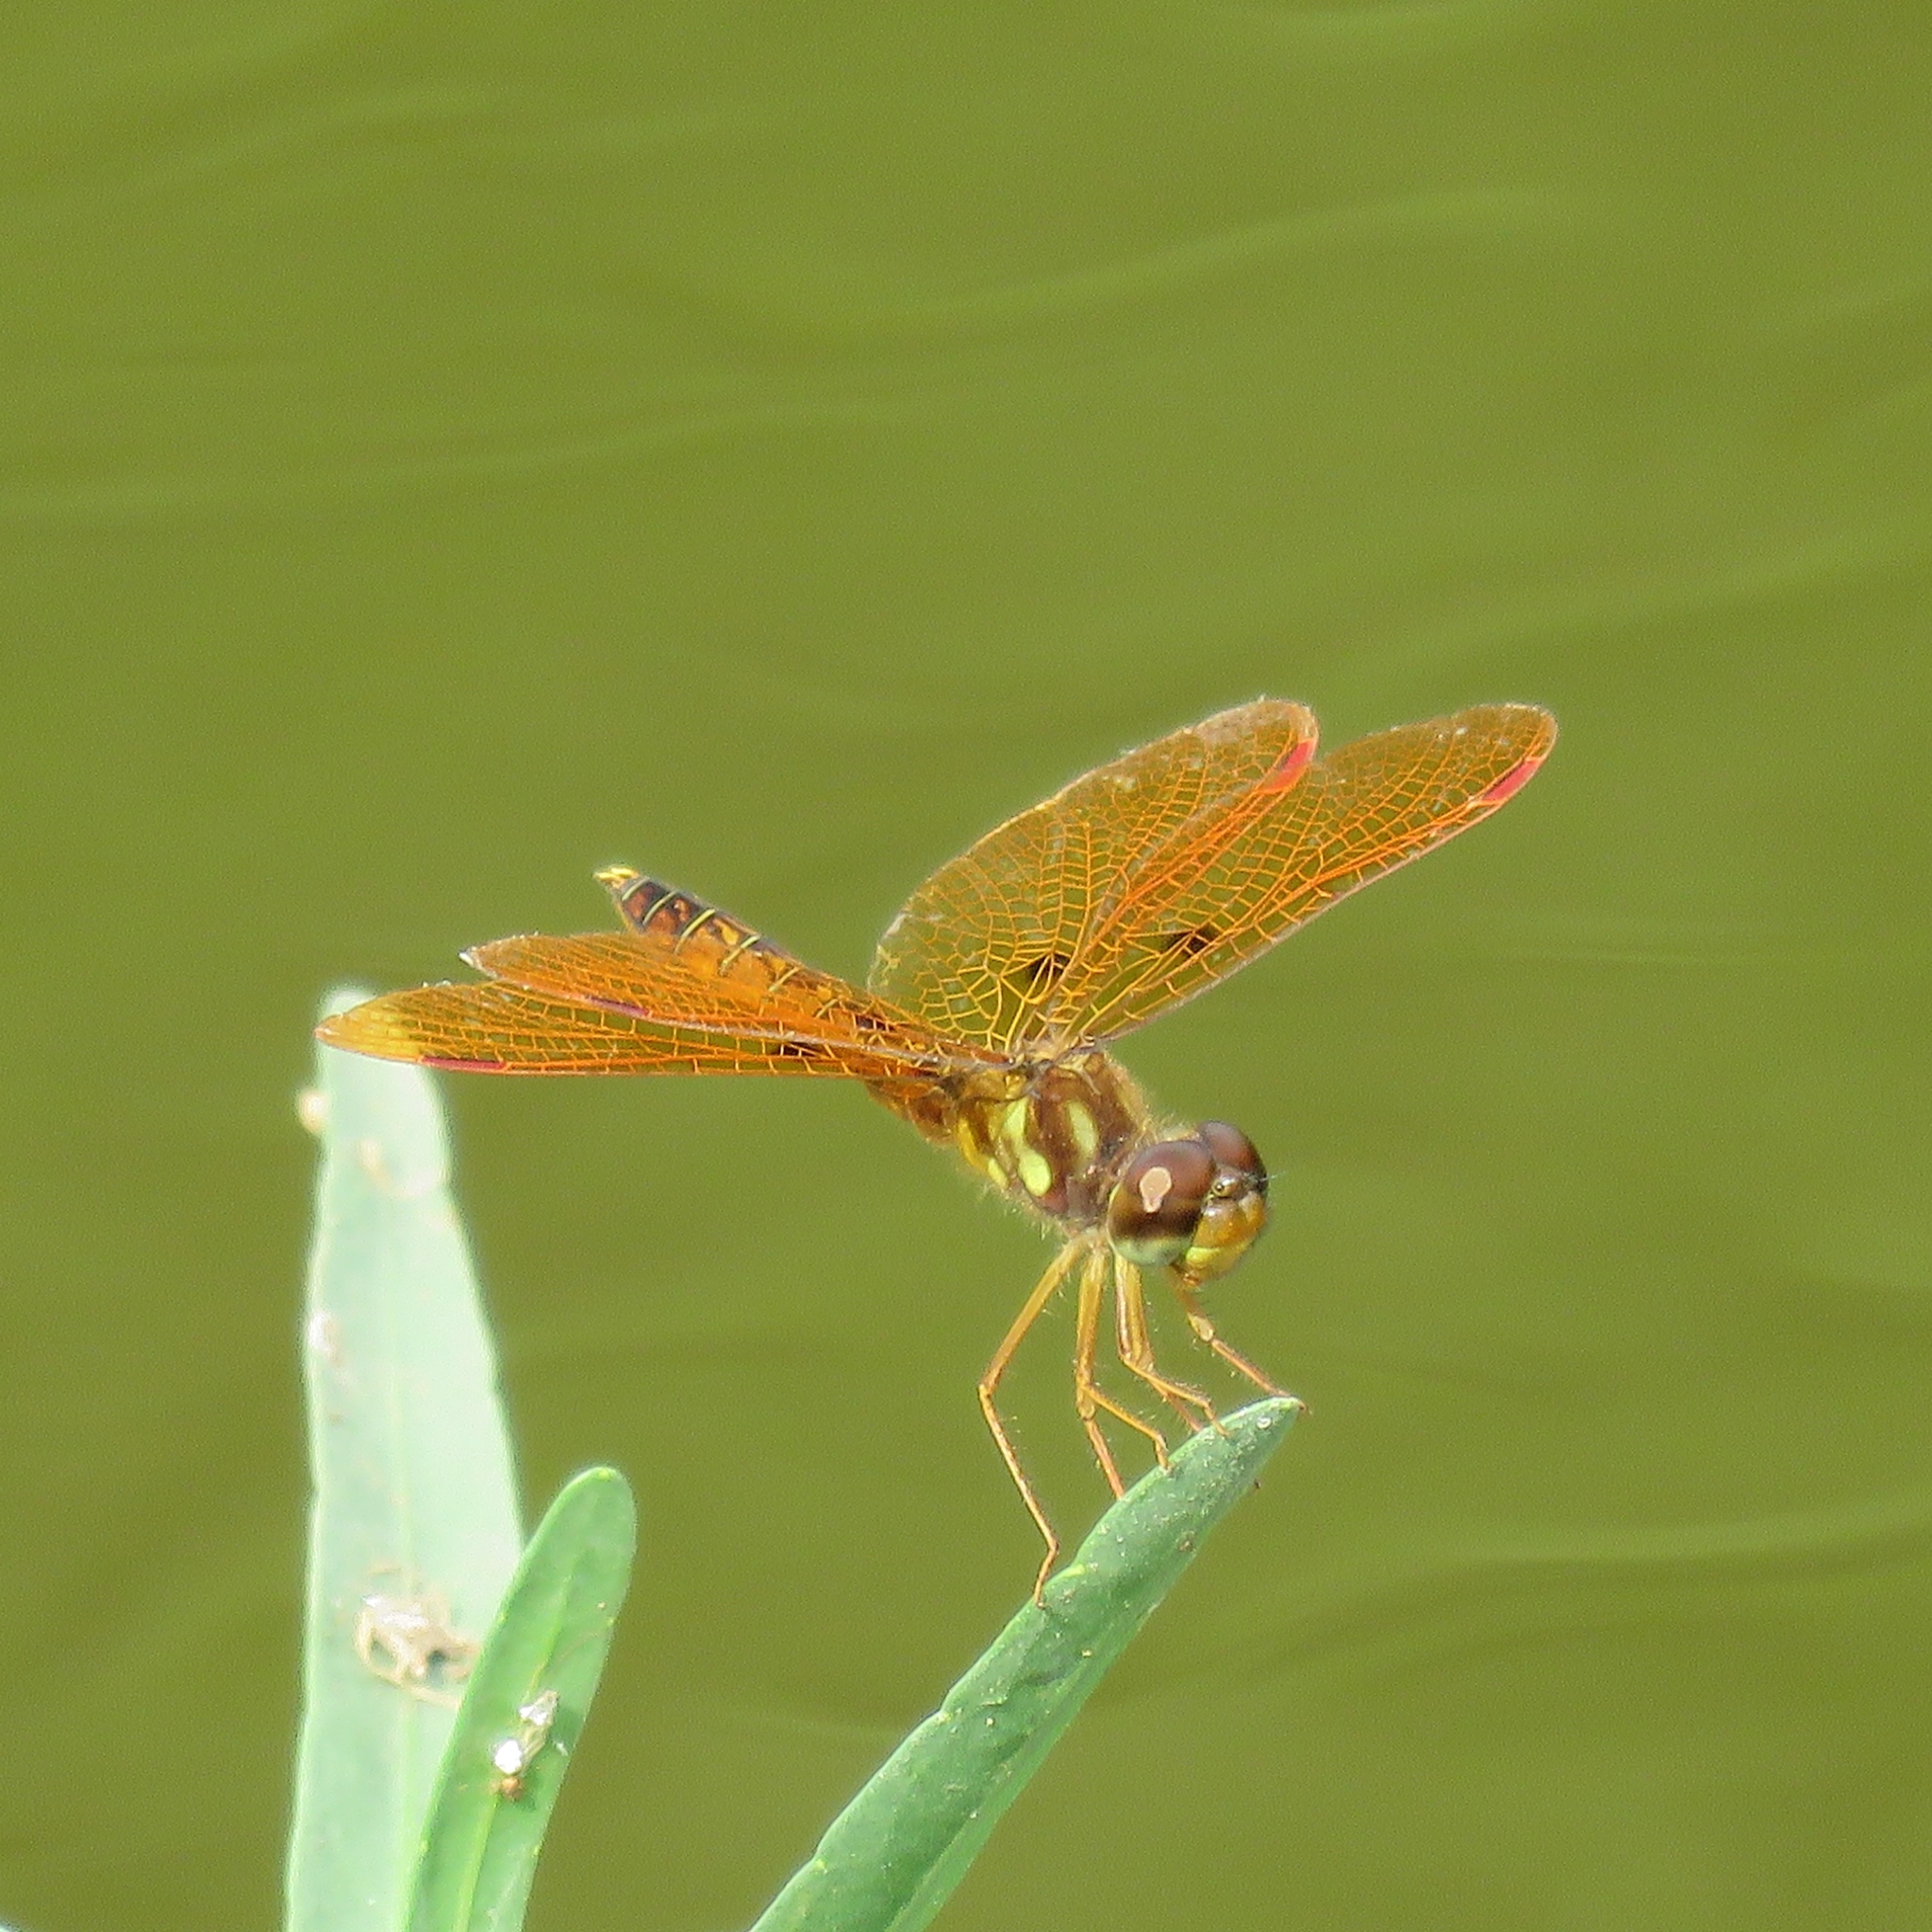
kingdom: Animalia
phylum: Arthropoda
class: Insecta
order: Odonata
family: Libellulidae
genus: Perithemis
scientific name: Perithemis tenera
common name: Eastern amberwing
